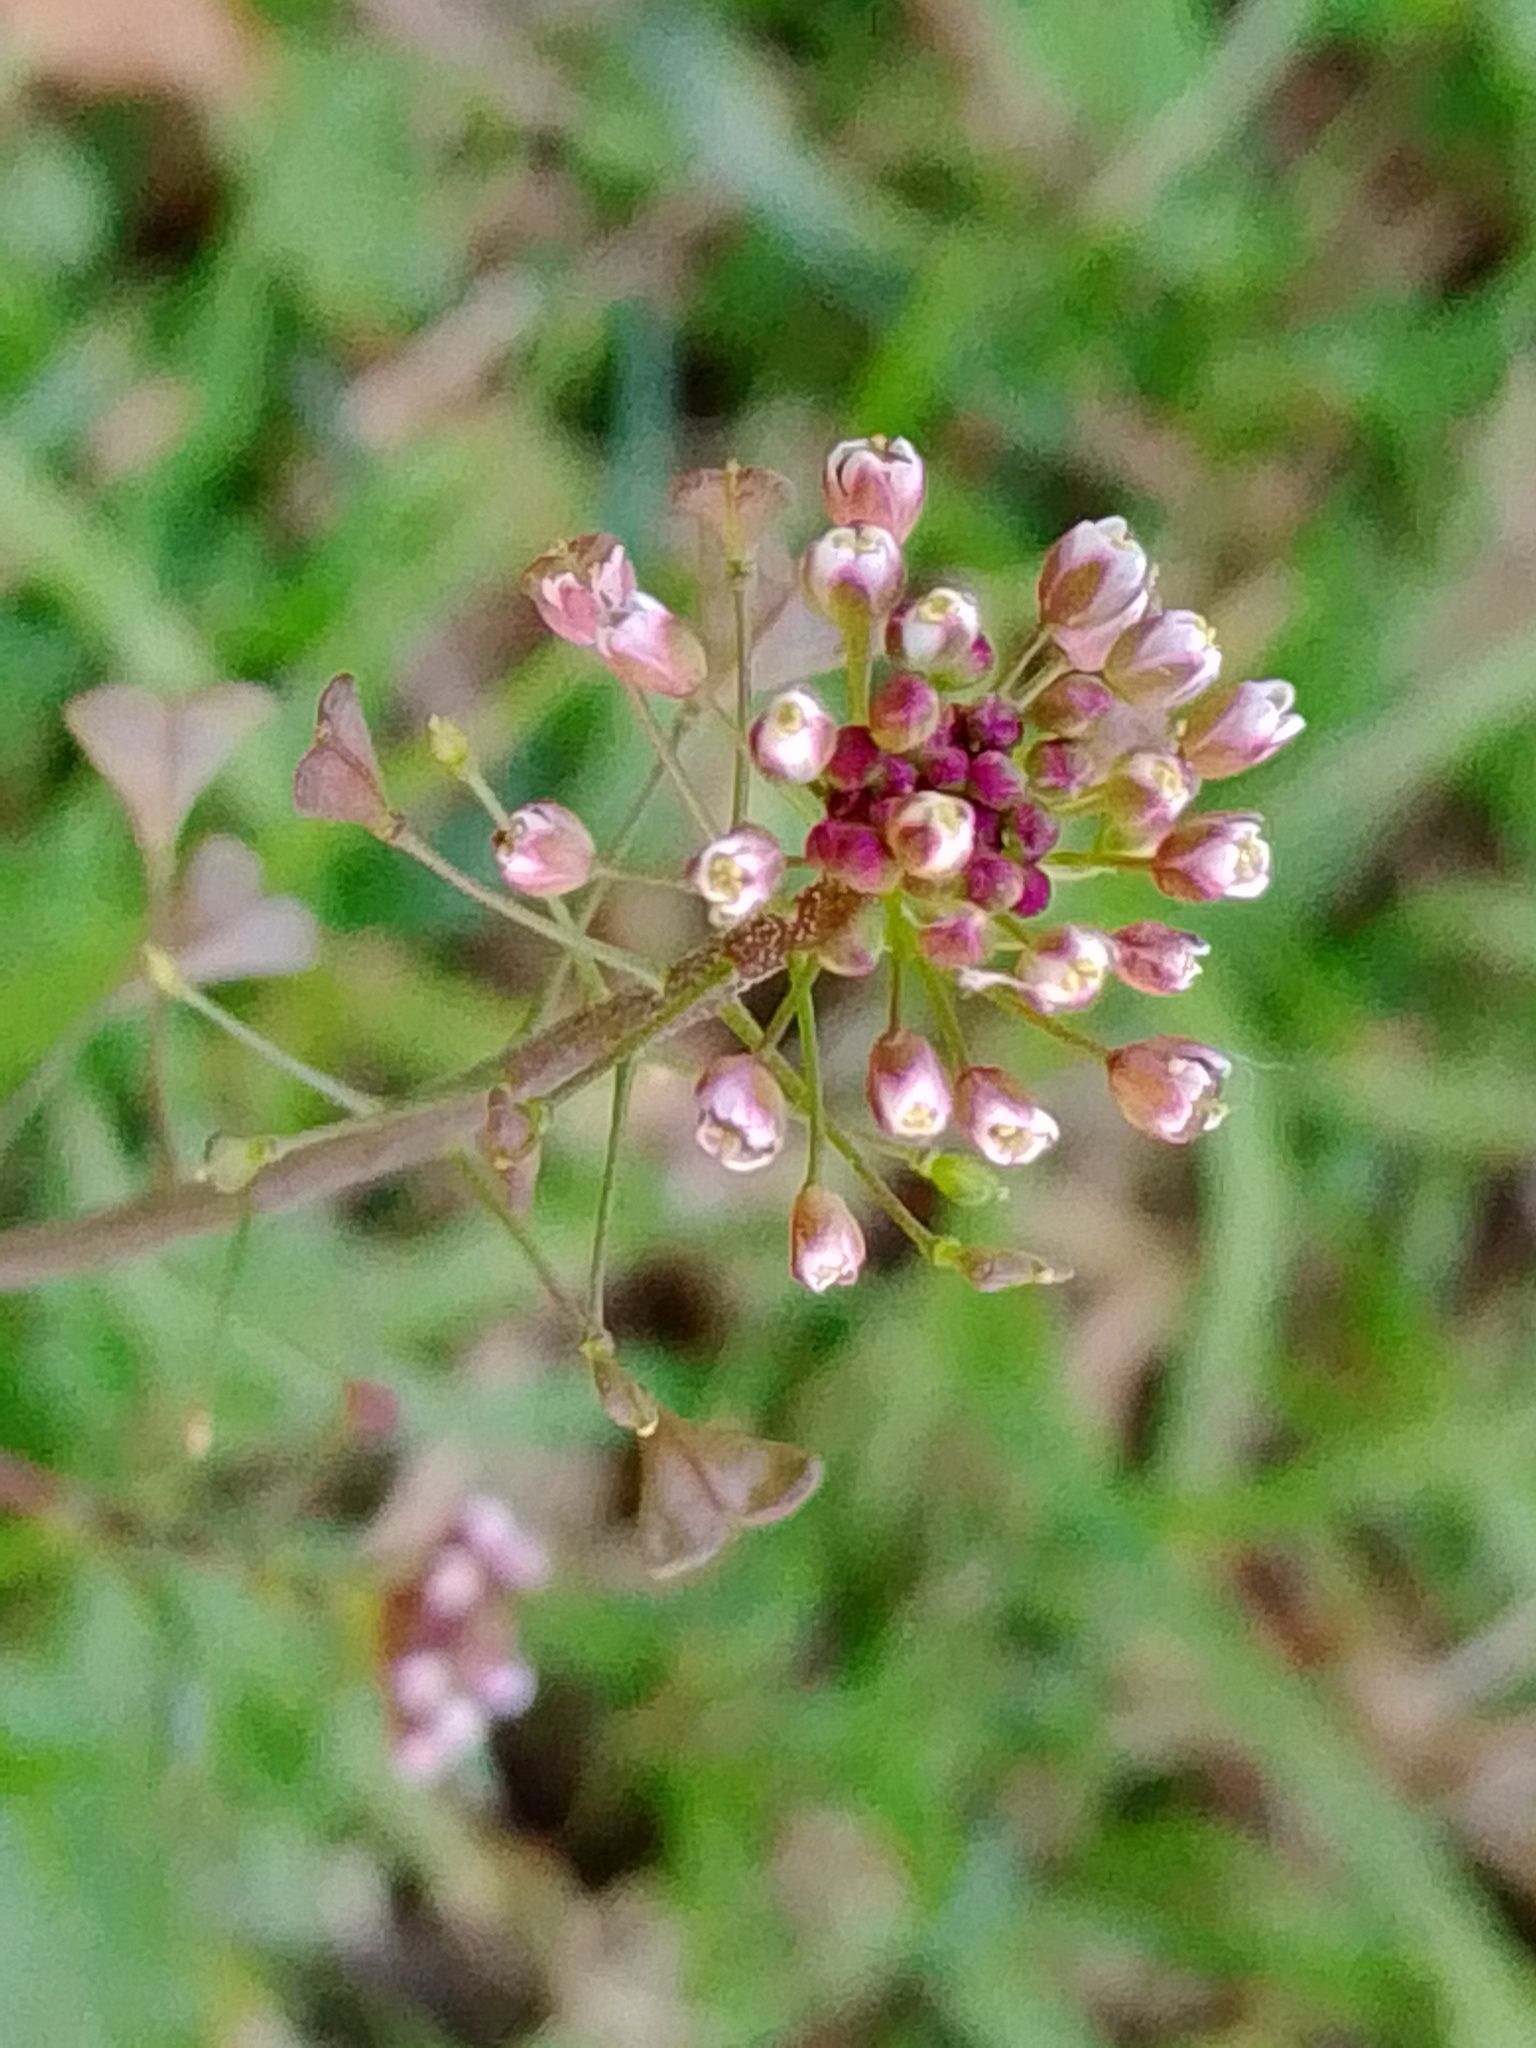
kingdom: Plantae
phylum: Tracheophyta
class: Magnoliopsida
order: Brassicales
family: Brassicaceae
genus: Capsella
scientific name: Capsella bursa-pastoris
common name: Shepherd's purse
